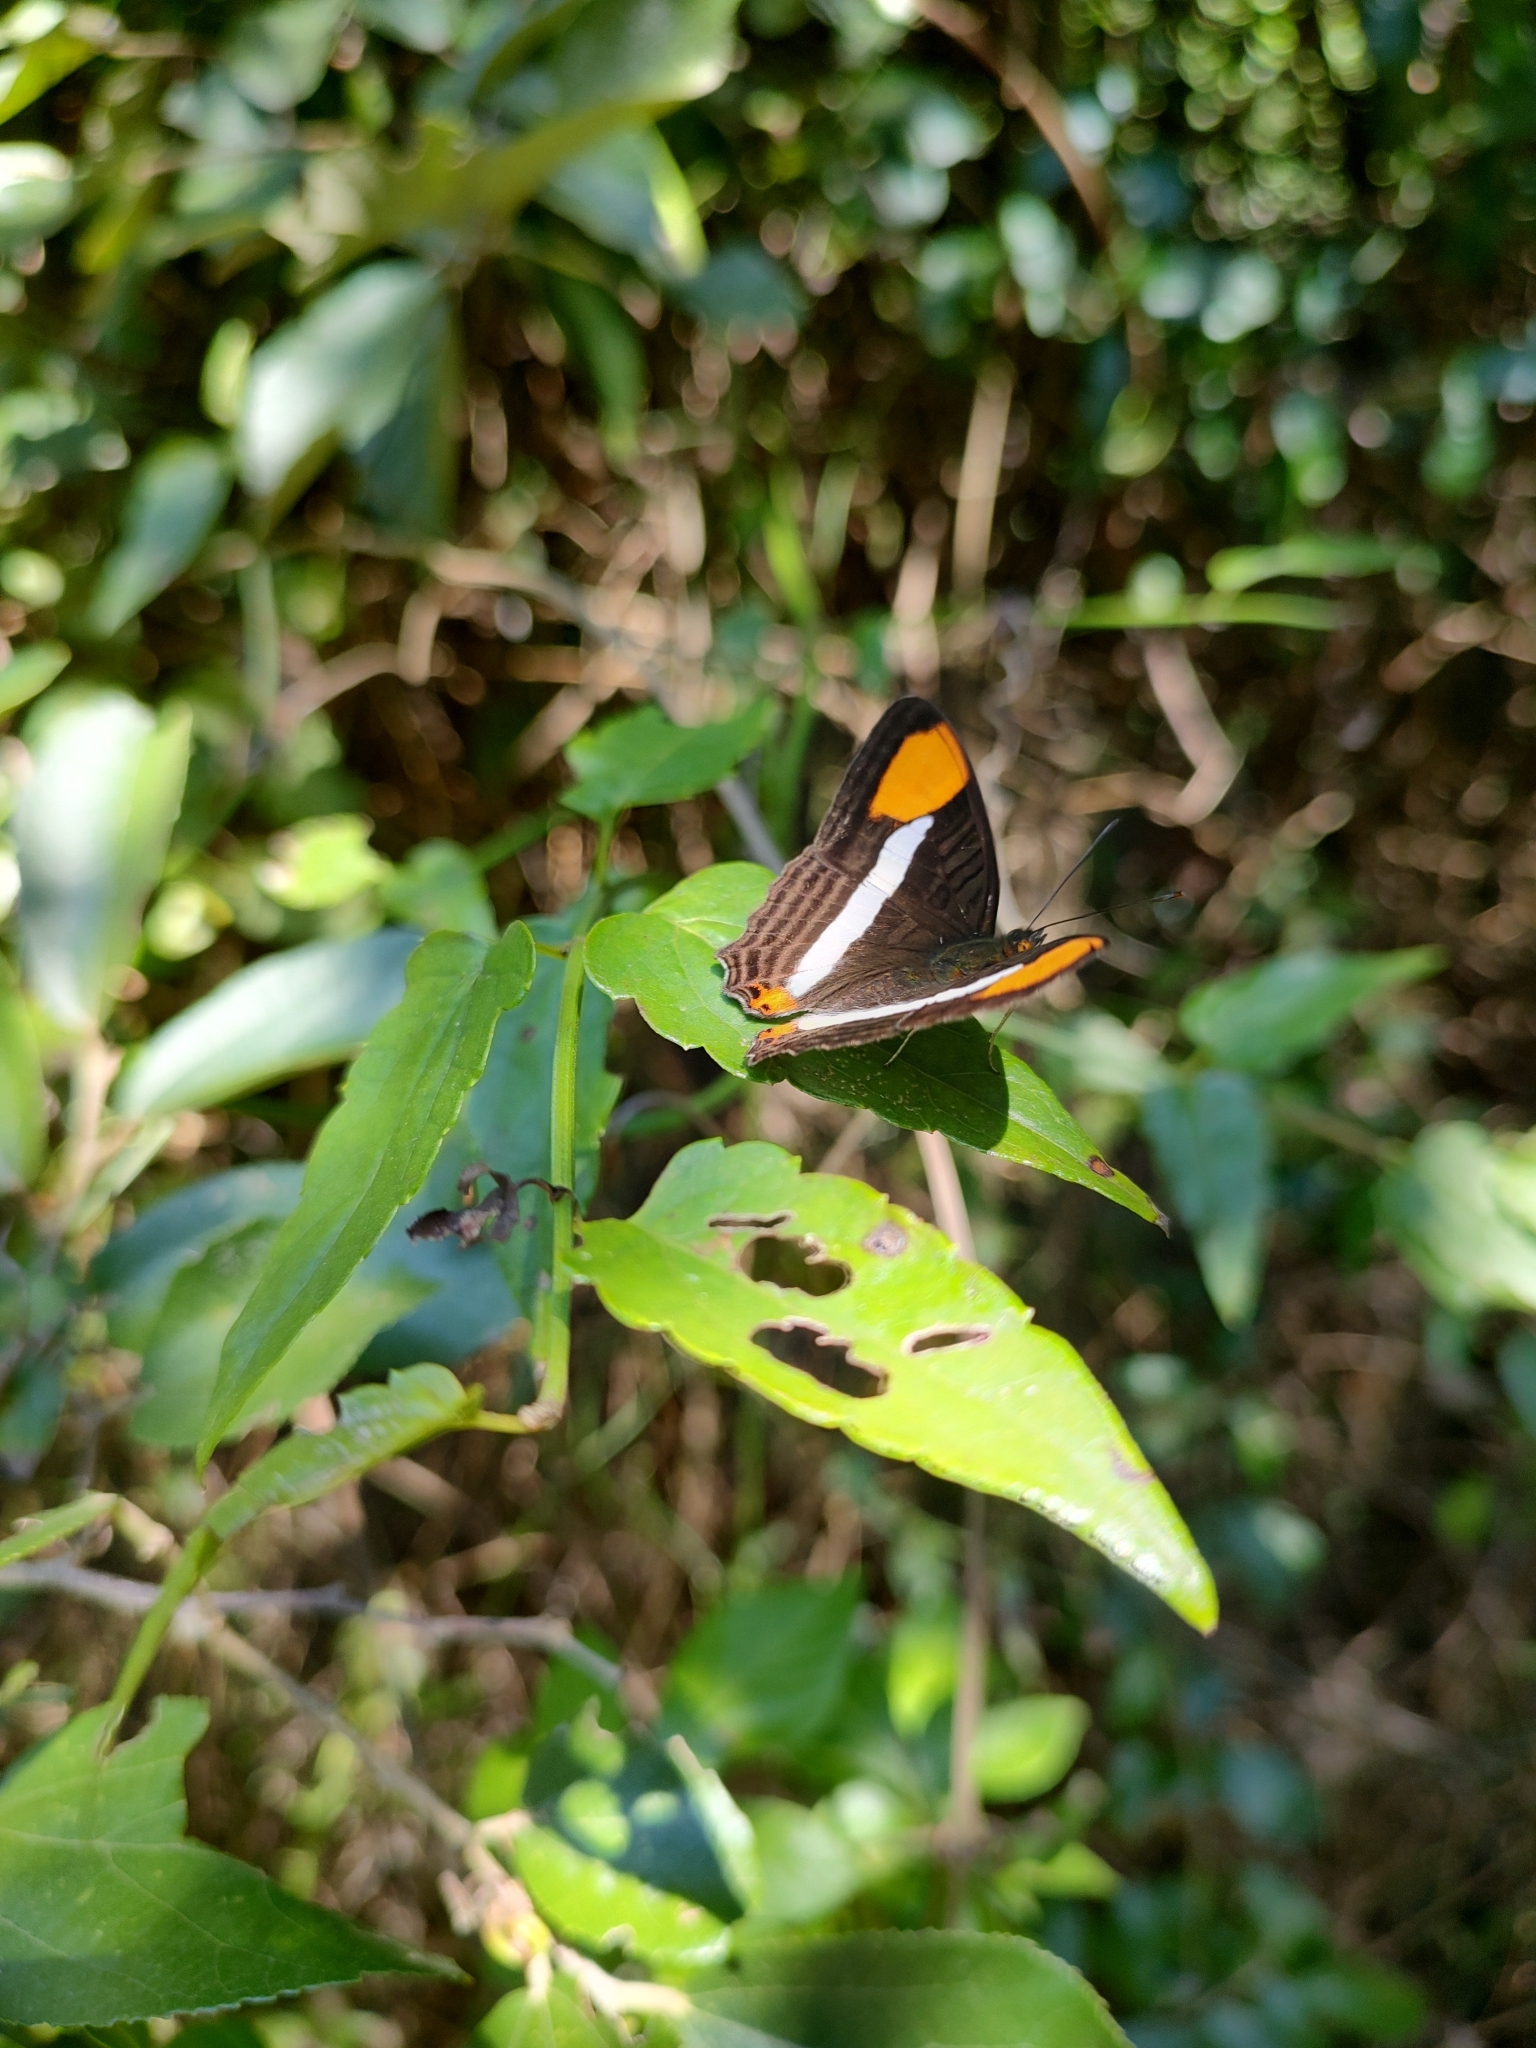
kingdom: Animalia
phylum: Arthropoda
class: Insecta
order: Lepidoptera
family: Nymphalidae
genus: Limenitis
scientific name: Limenitis syma
